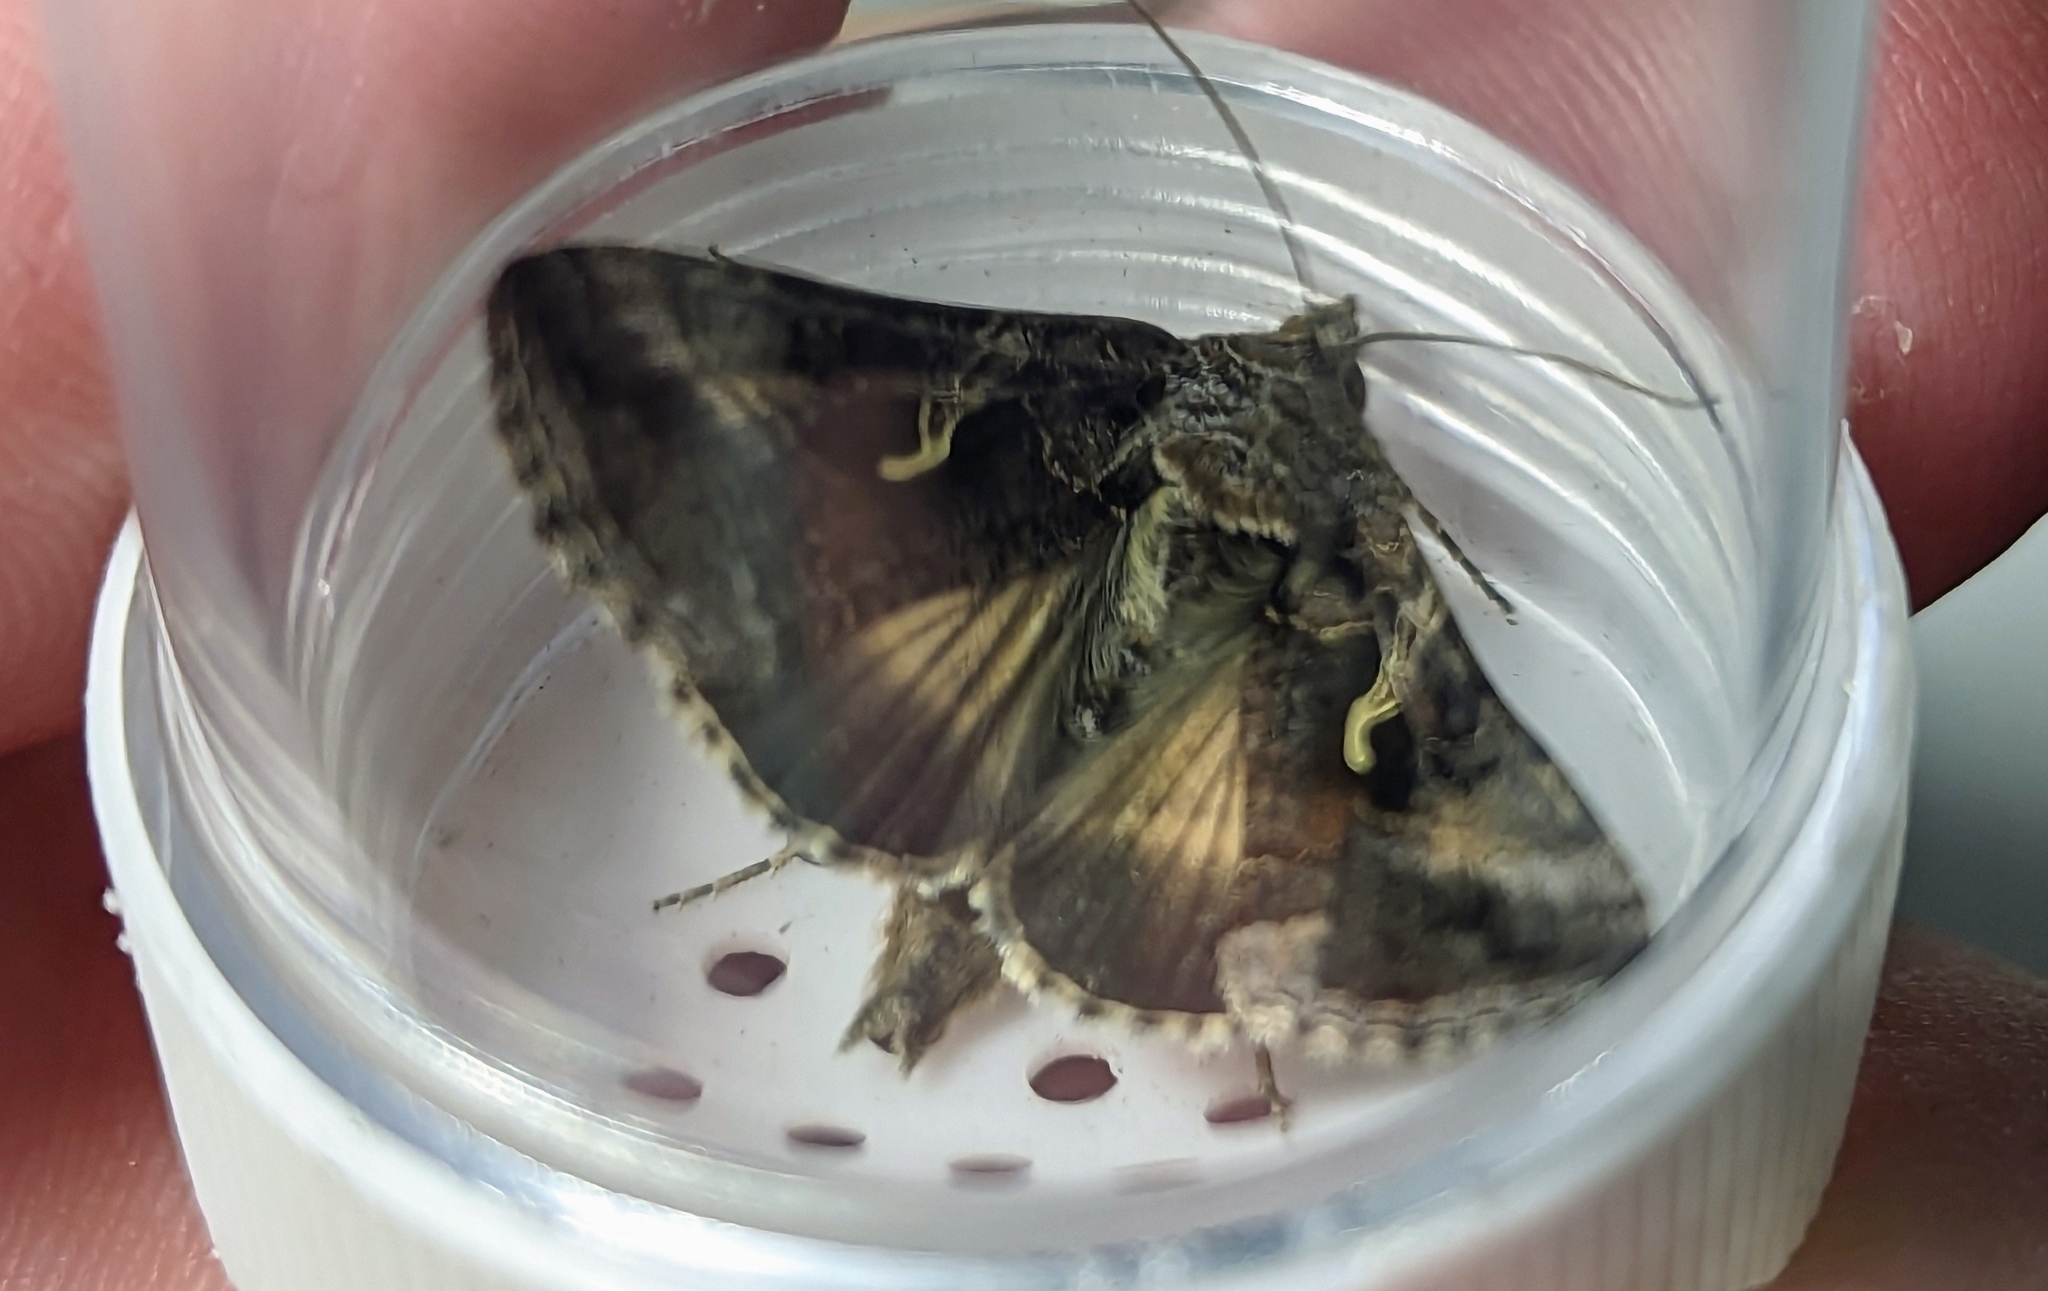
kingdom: Animalia
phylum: Arthropoda
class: Insecta
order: Lepidoptera
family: Noctuidae
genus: Autographa
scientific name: Autographa gamma
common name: Silver y
